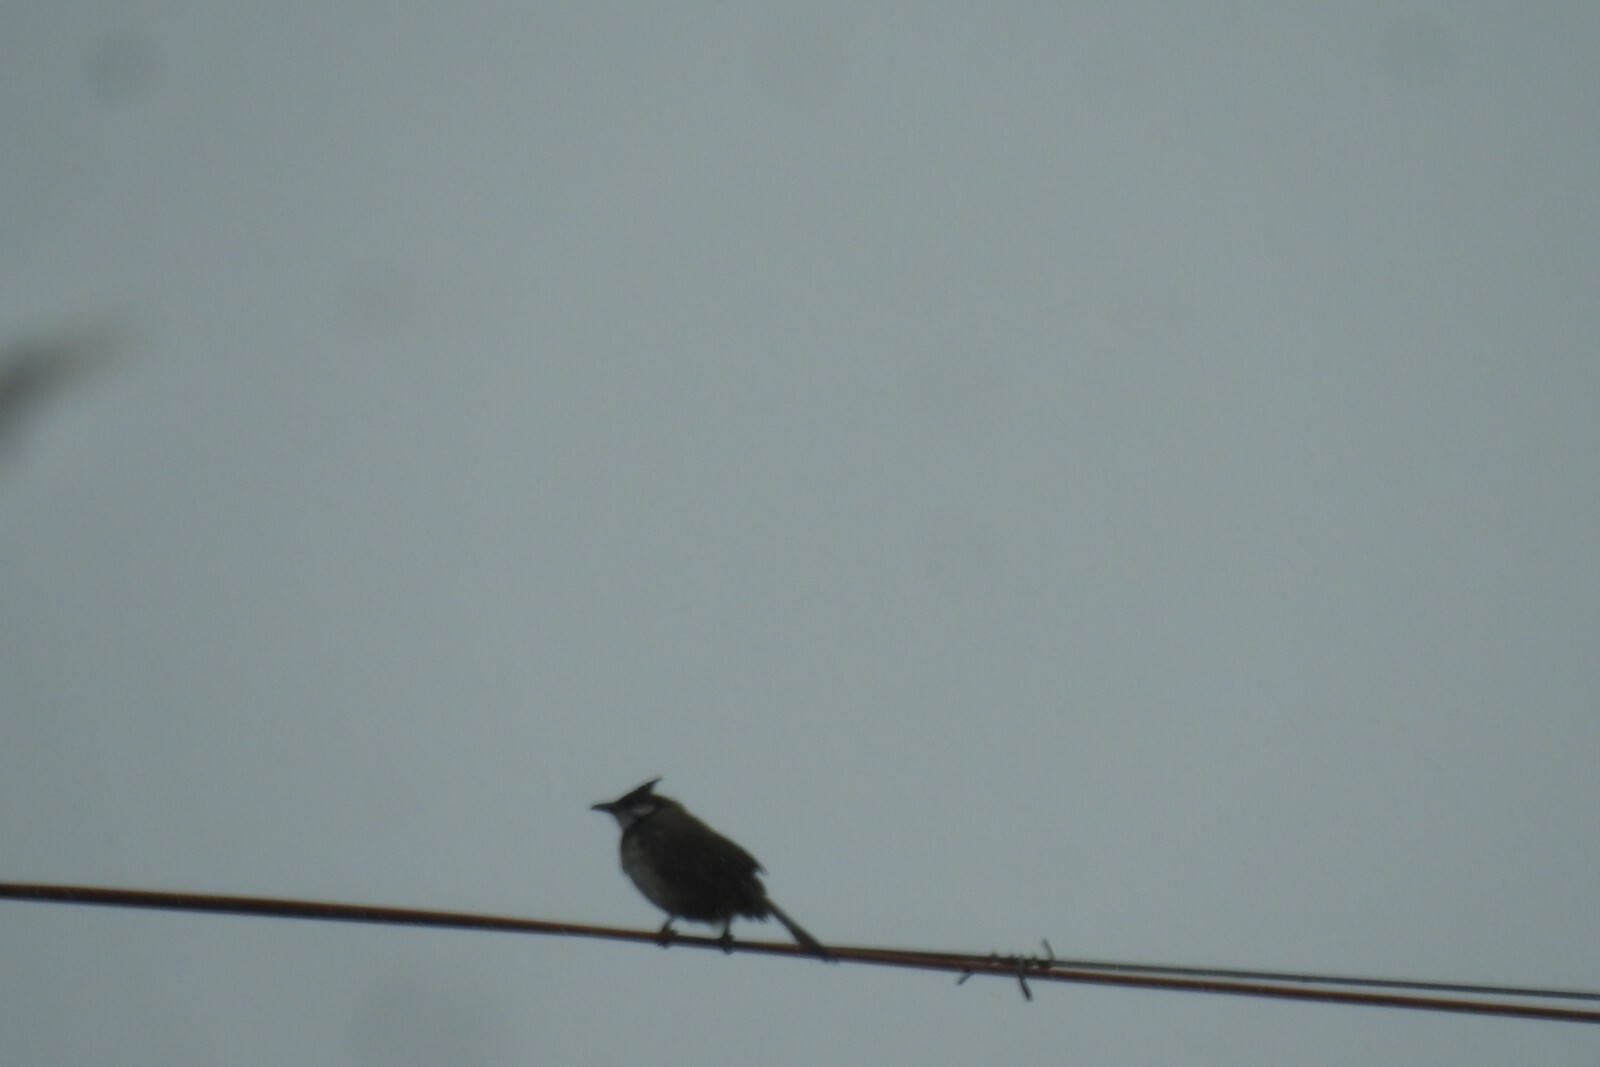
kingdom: Animalia
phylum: Chordata
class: Aves
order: Passeriformes
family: Pycnonotidae
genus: Pycnonotus
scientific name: Pycnonotus jocosus
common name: Red-whiskered bulbul
